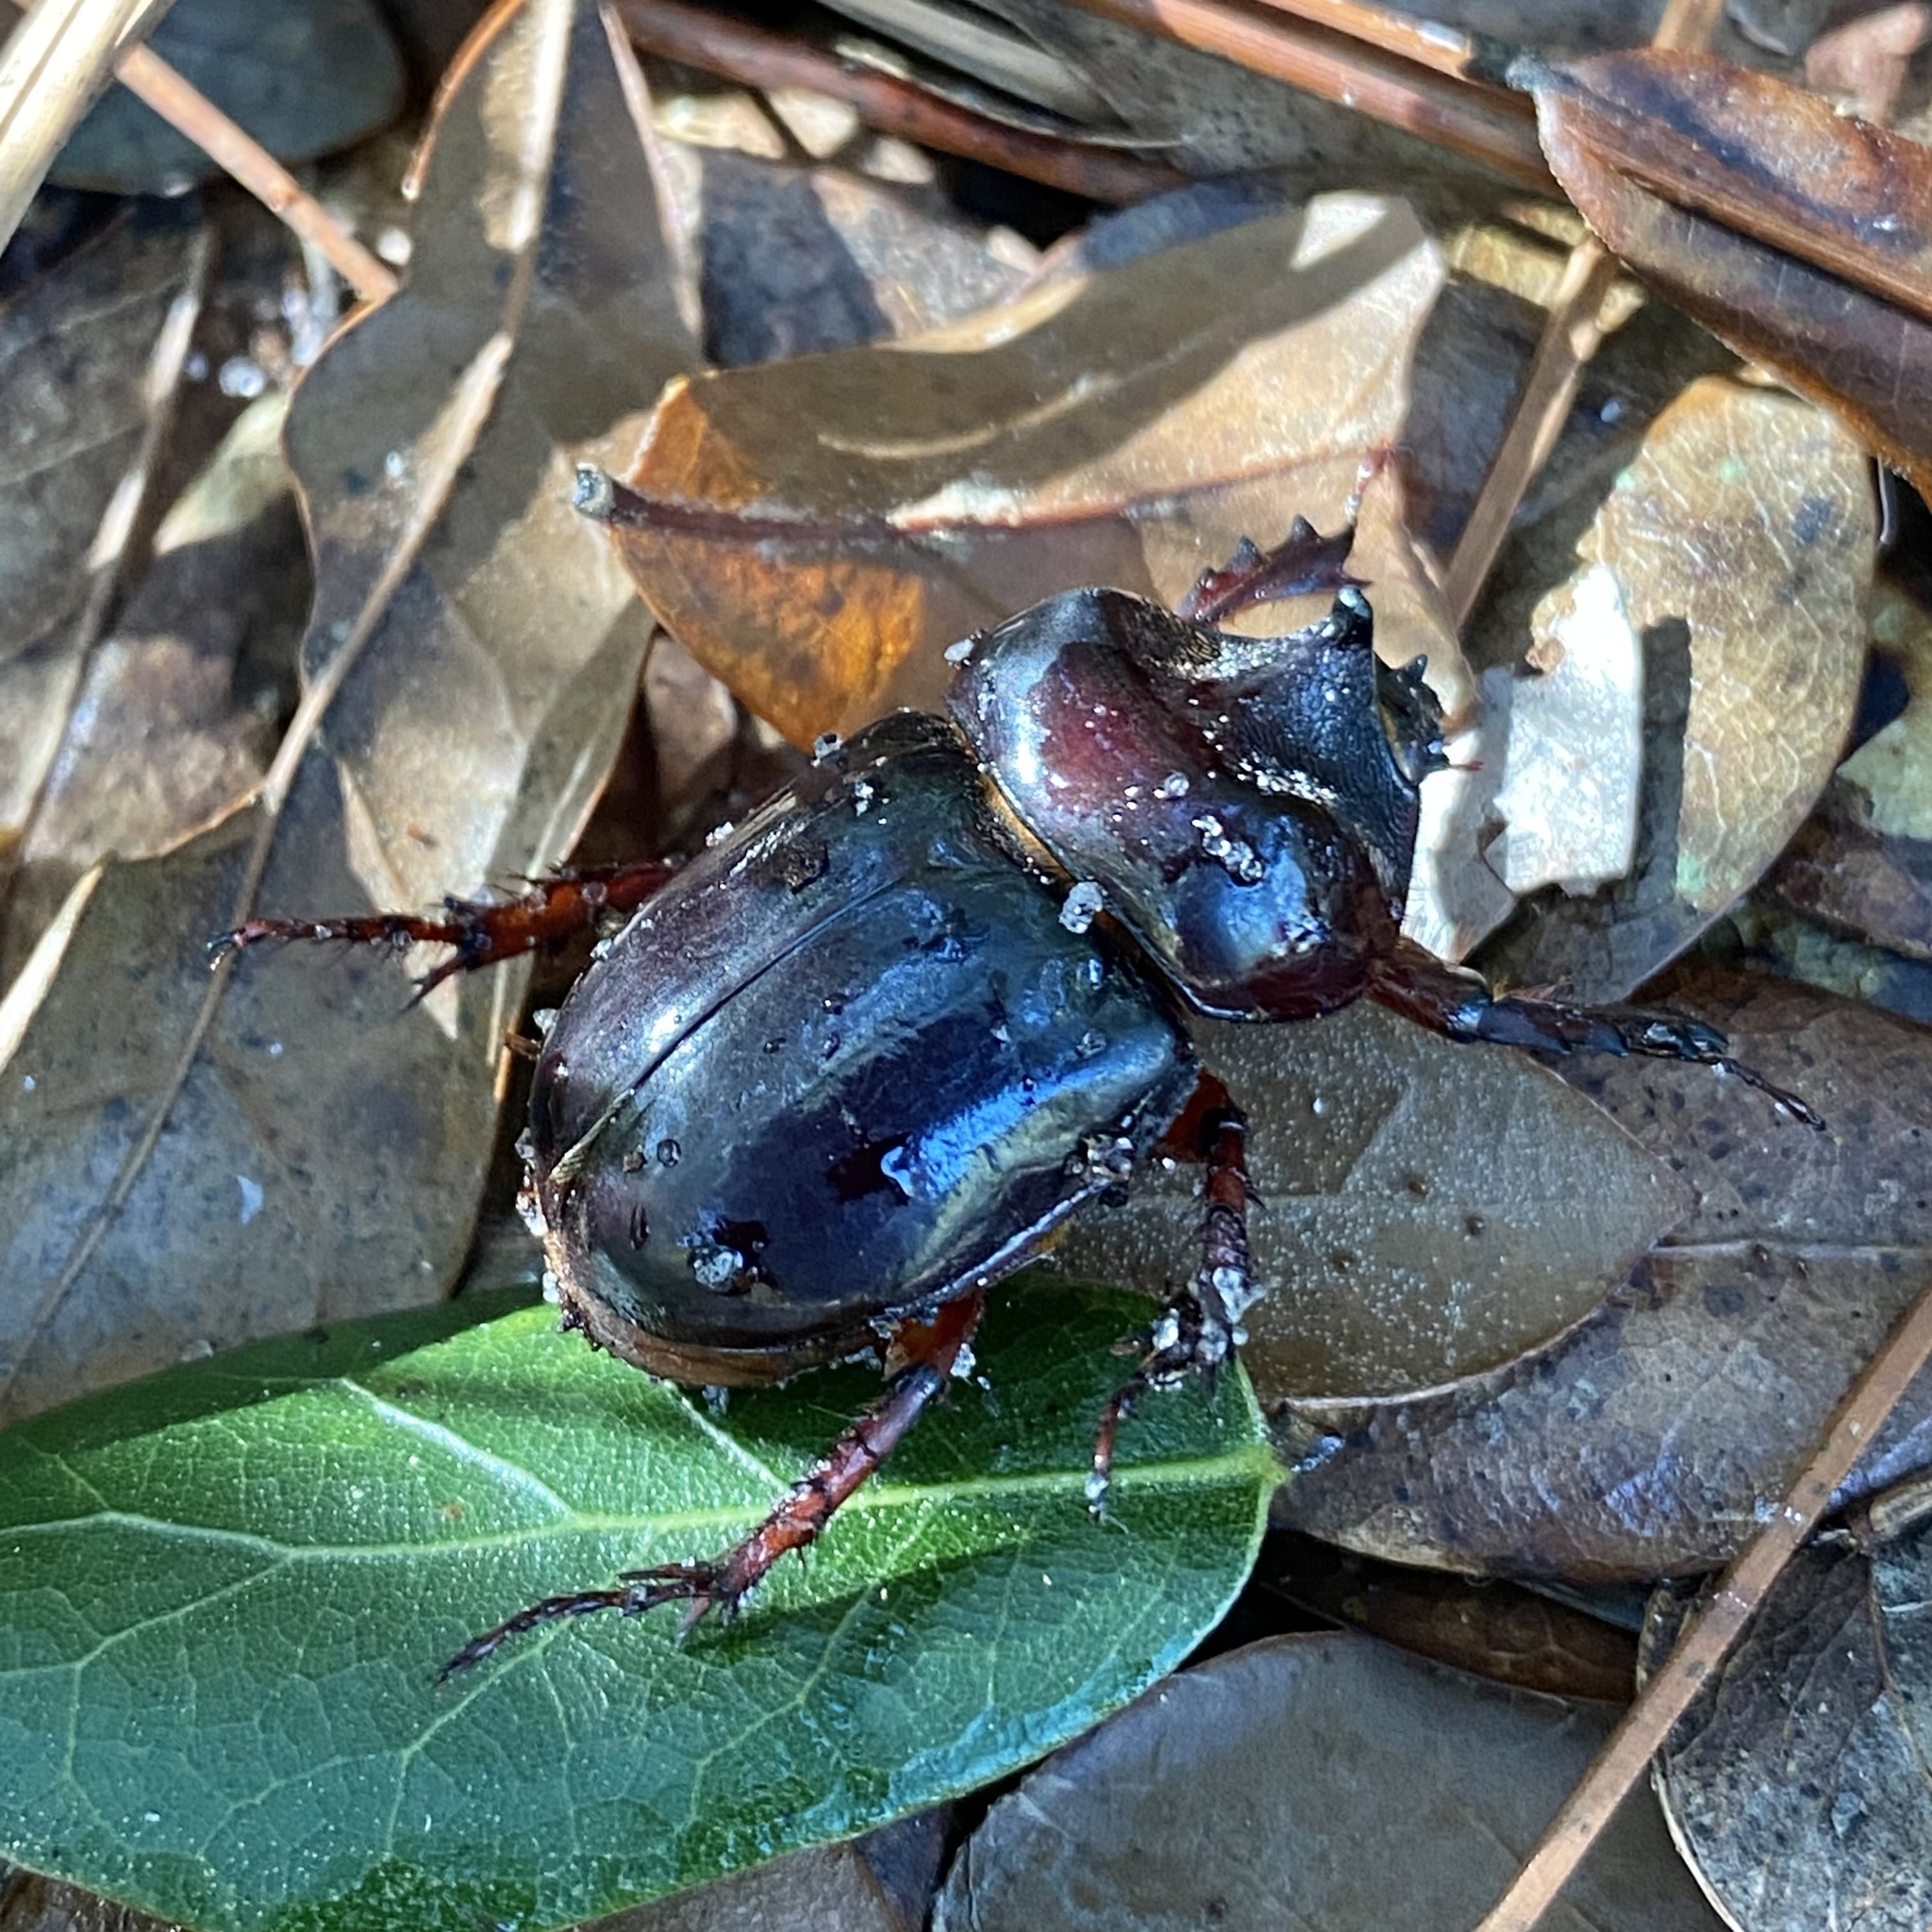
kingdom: Animalia
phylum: Arthropoda
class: Insecta
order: Coleoptera
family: Scarabaeidae
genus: Strategus
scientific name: Strategus antaeus
